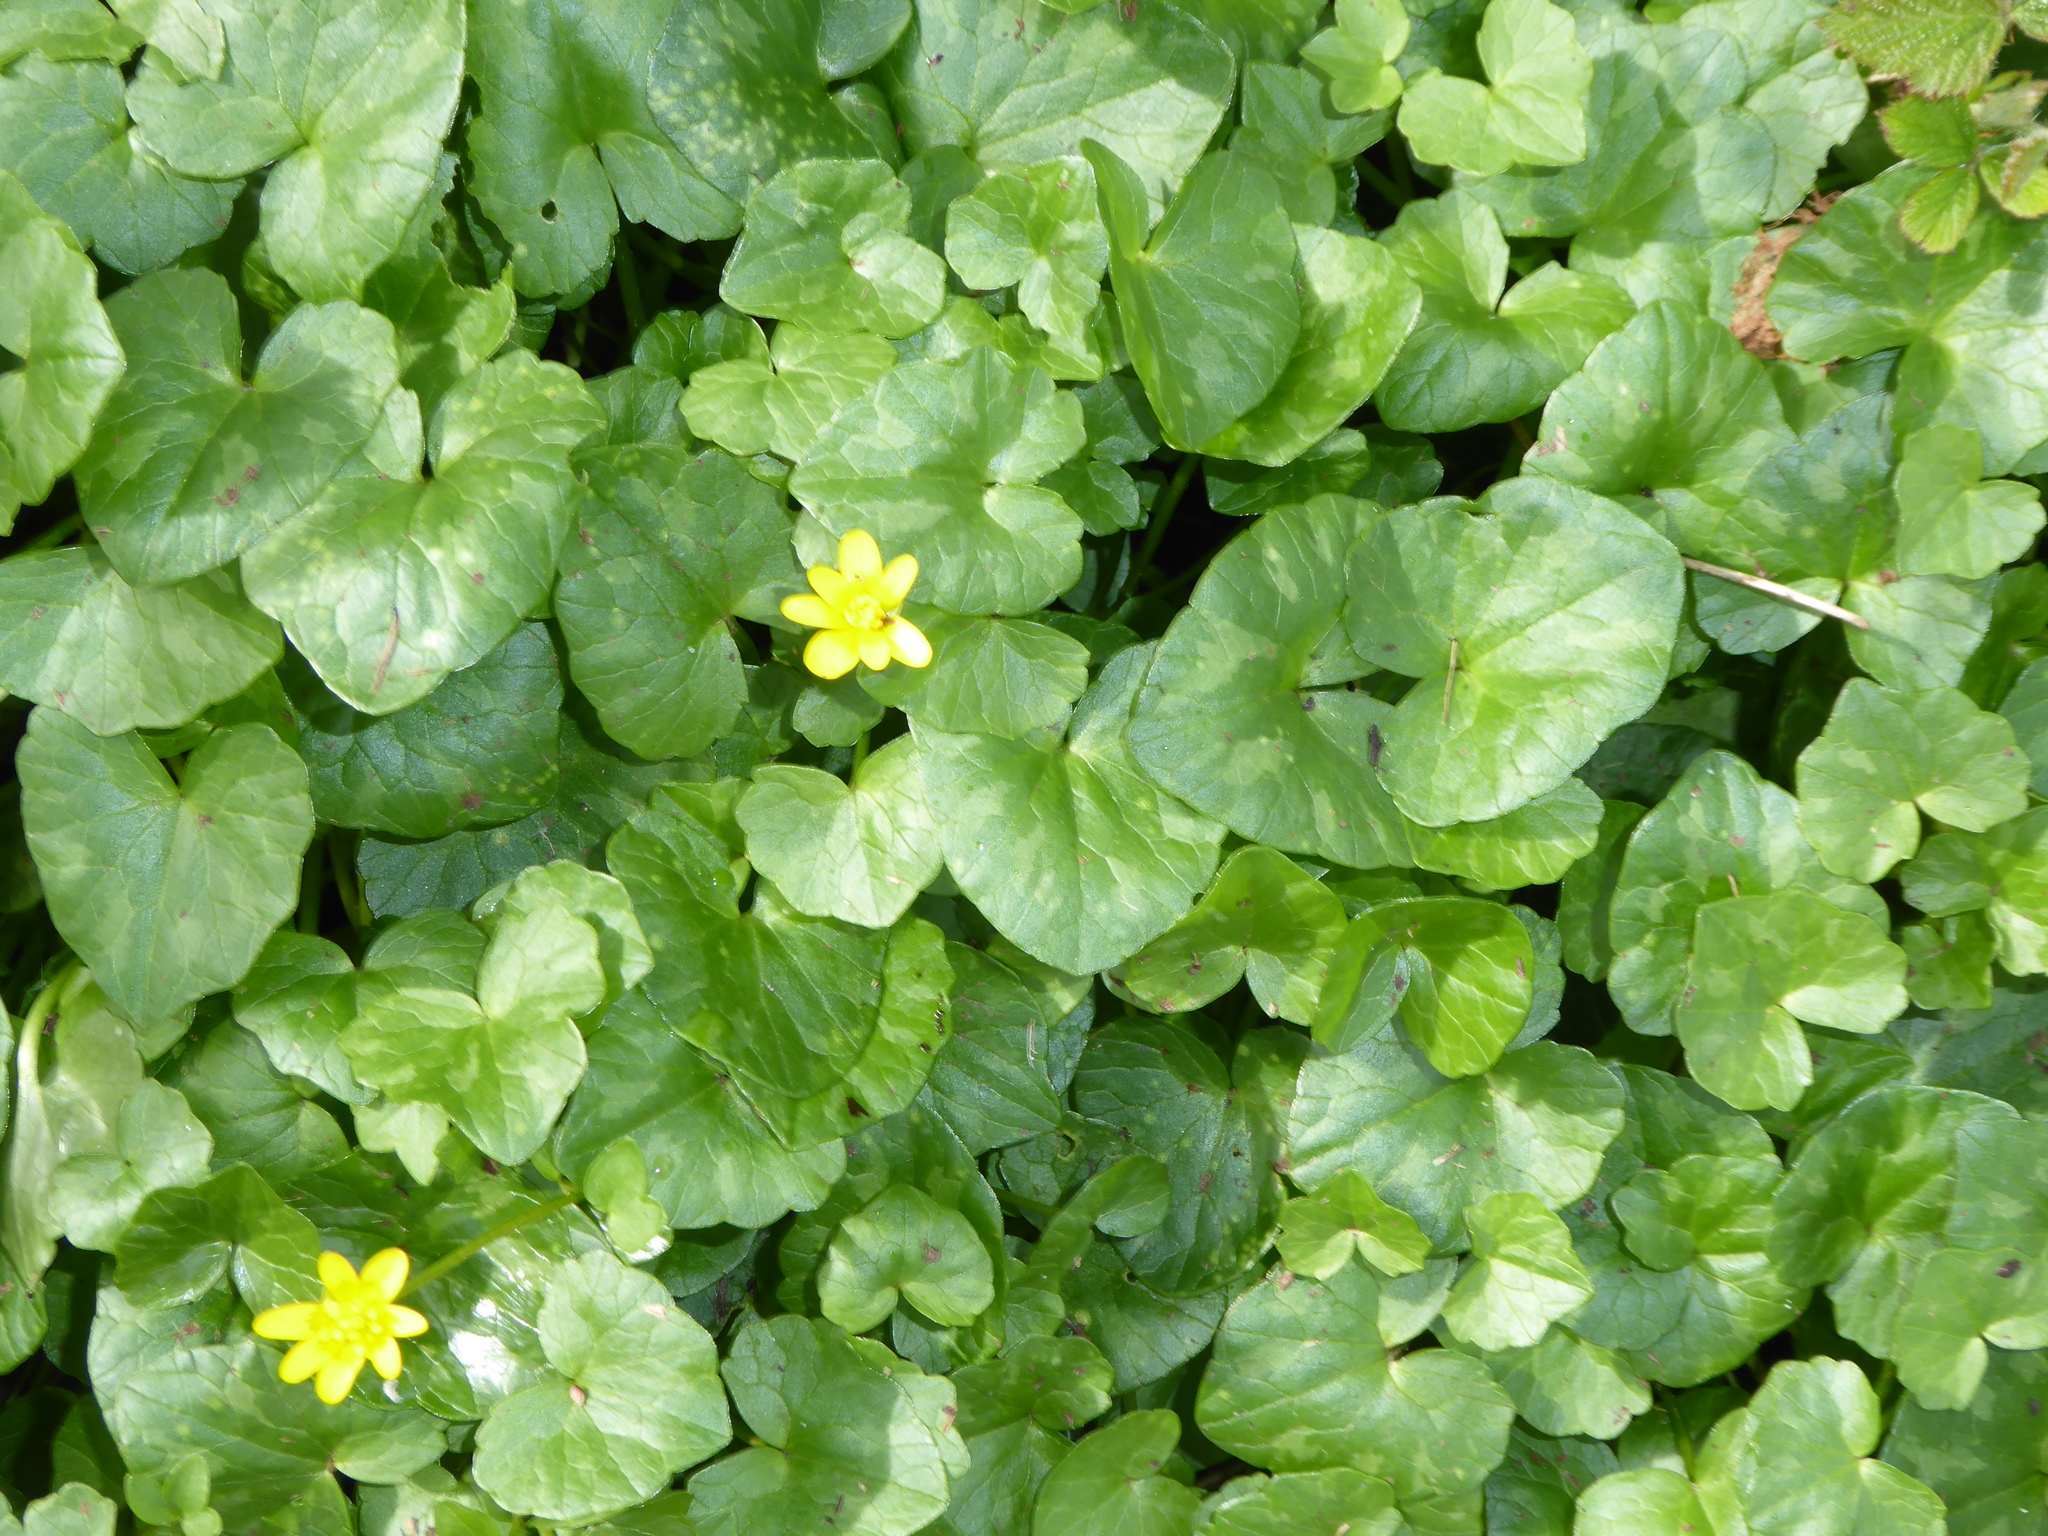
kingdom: Plantae
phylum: Tracheophyta
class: Magnoliopsida
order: Ranunculales
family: Ranunculaceae
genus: Ficaria
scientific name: Ficaria verna
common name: Lesser celandine
